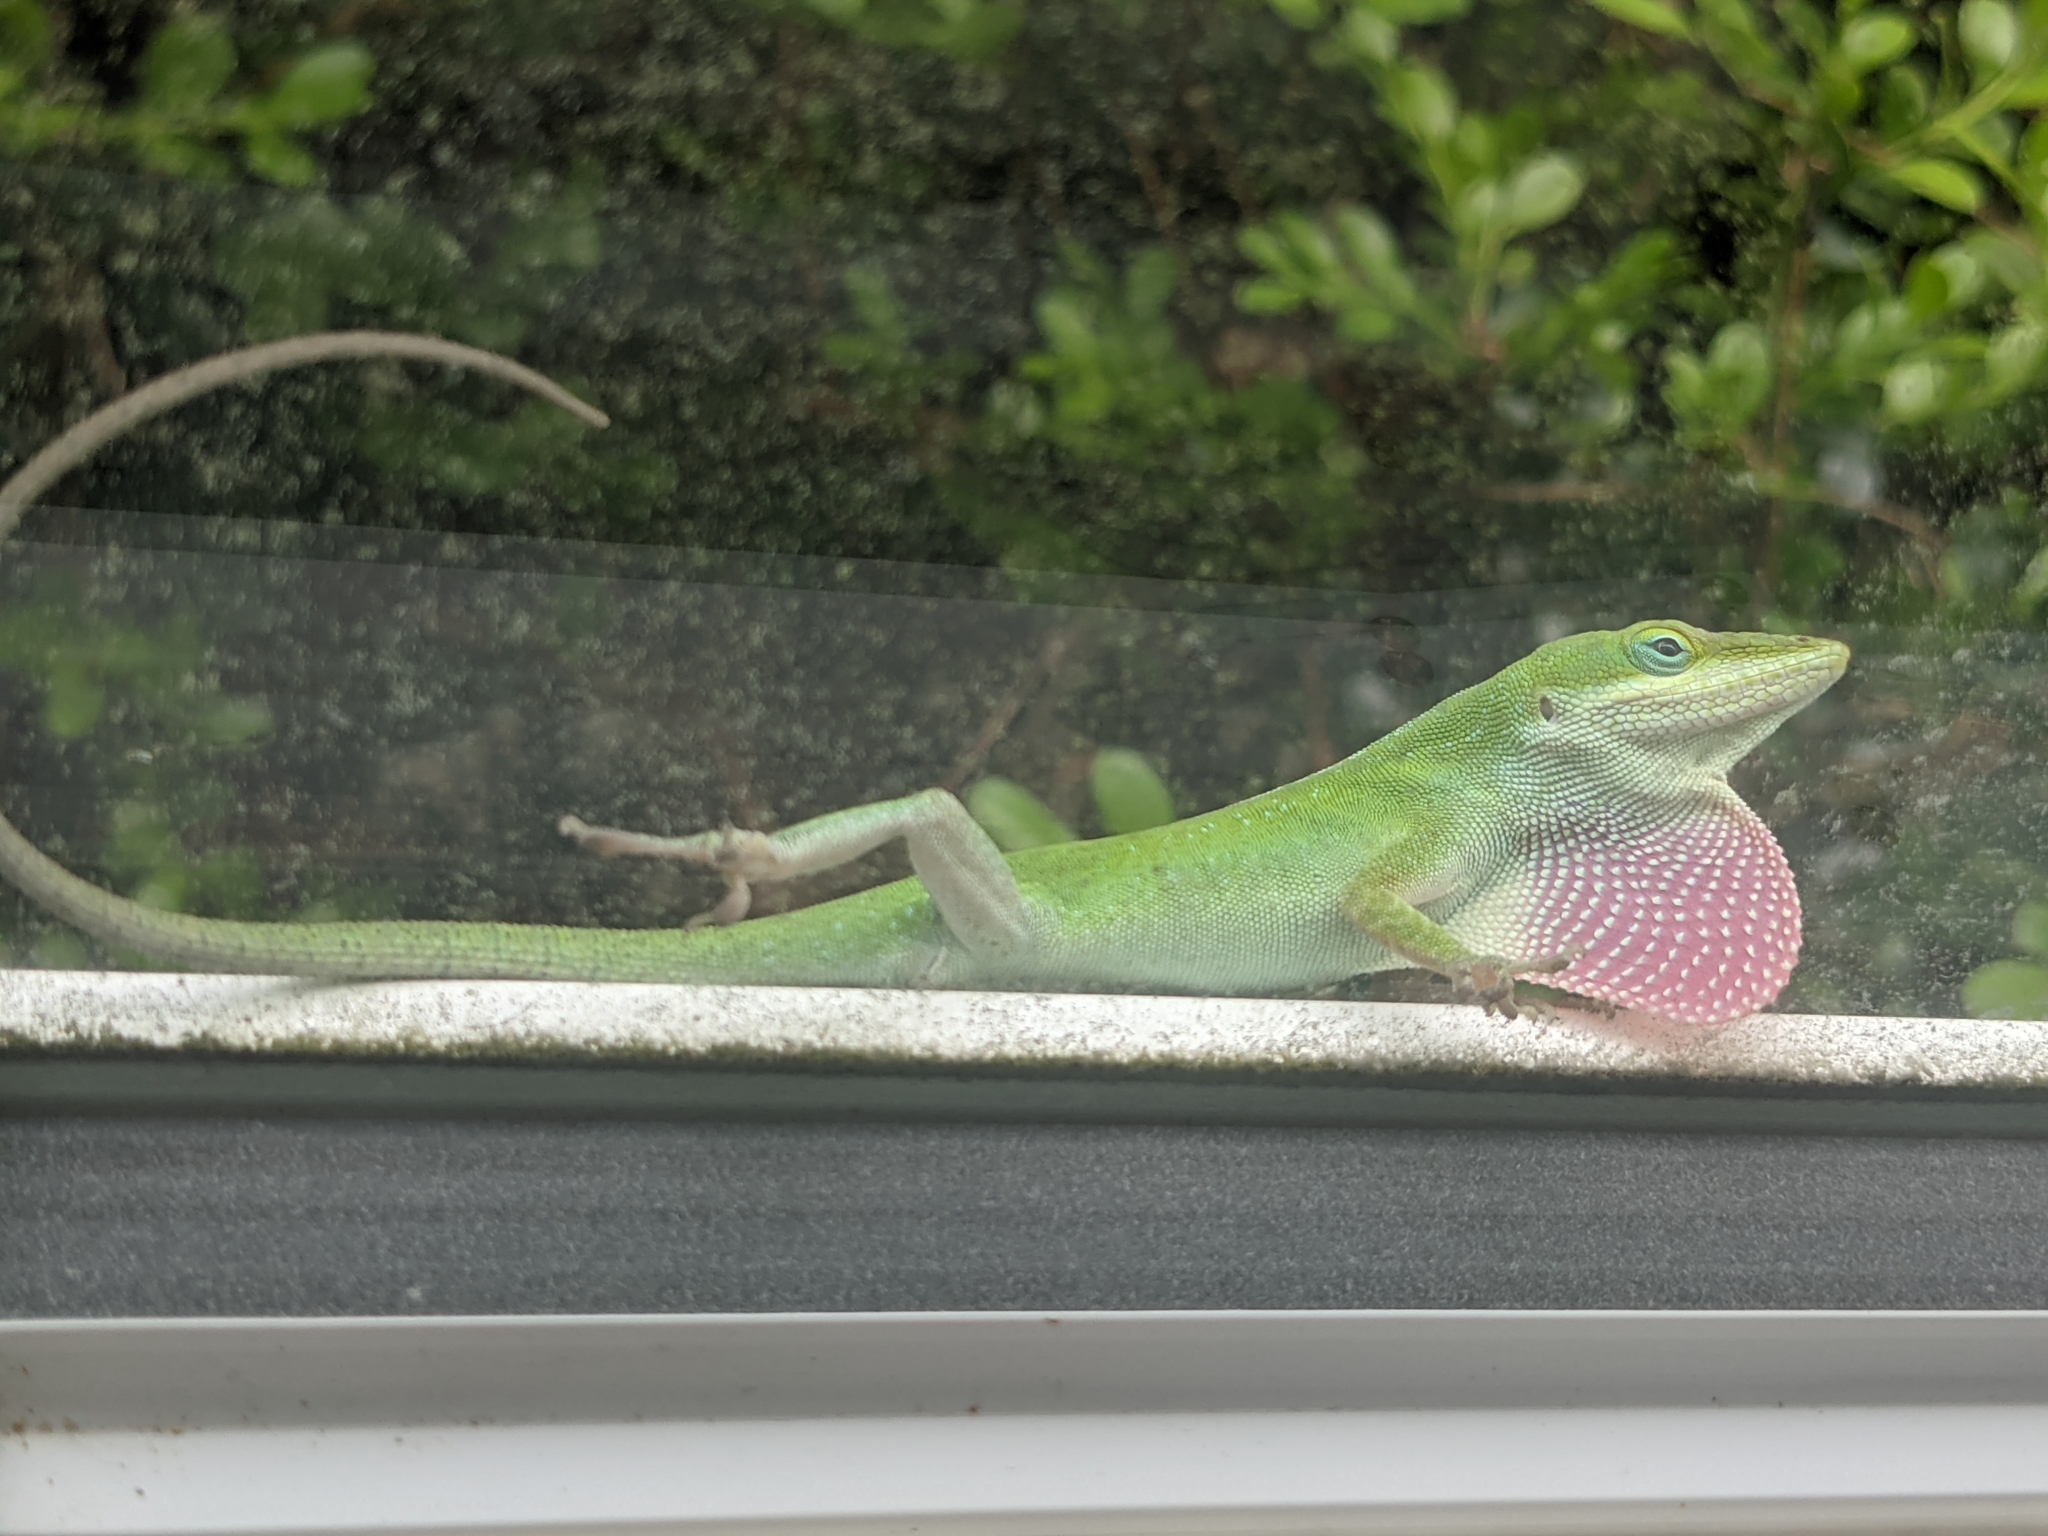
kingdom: Animalia
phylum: Chordata
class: Squamata
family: Dactyloidae
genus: Anolis
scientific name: Anolis carolinensis
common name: Green anole
